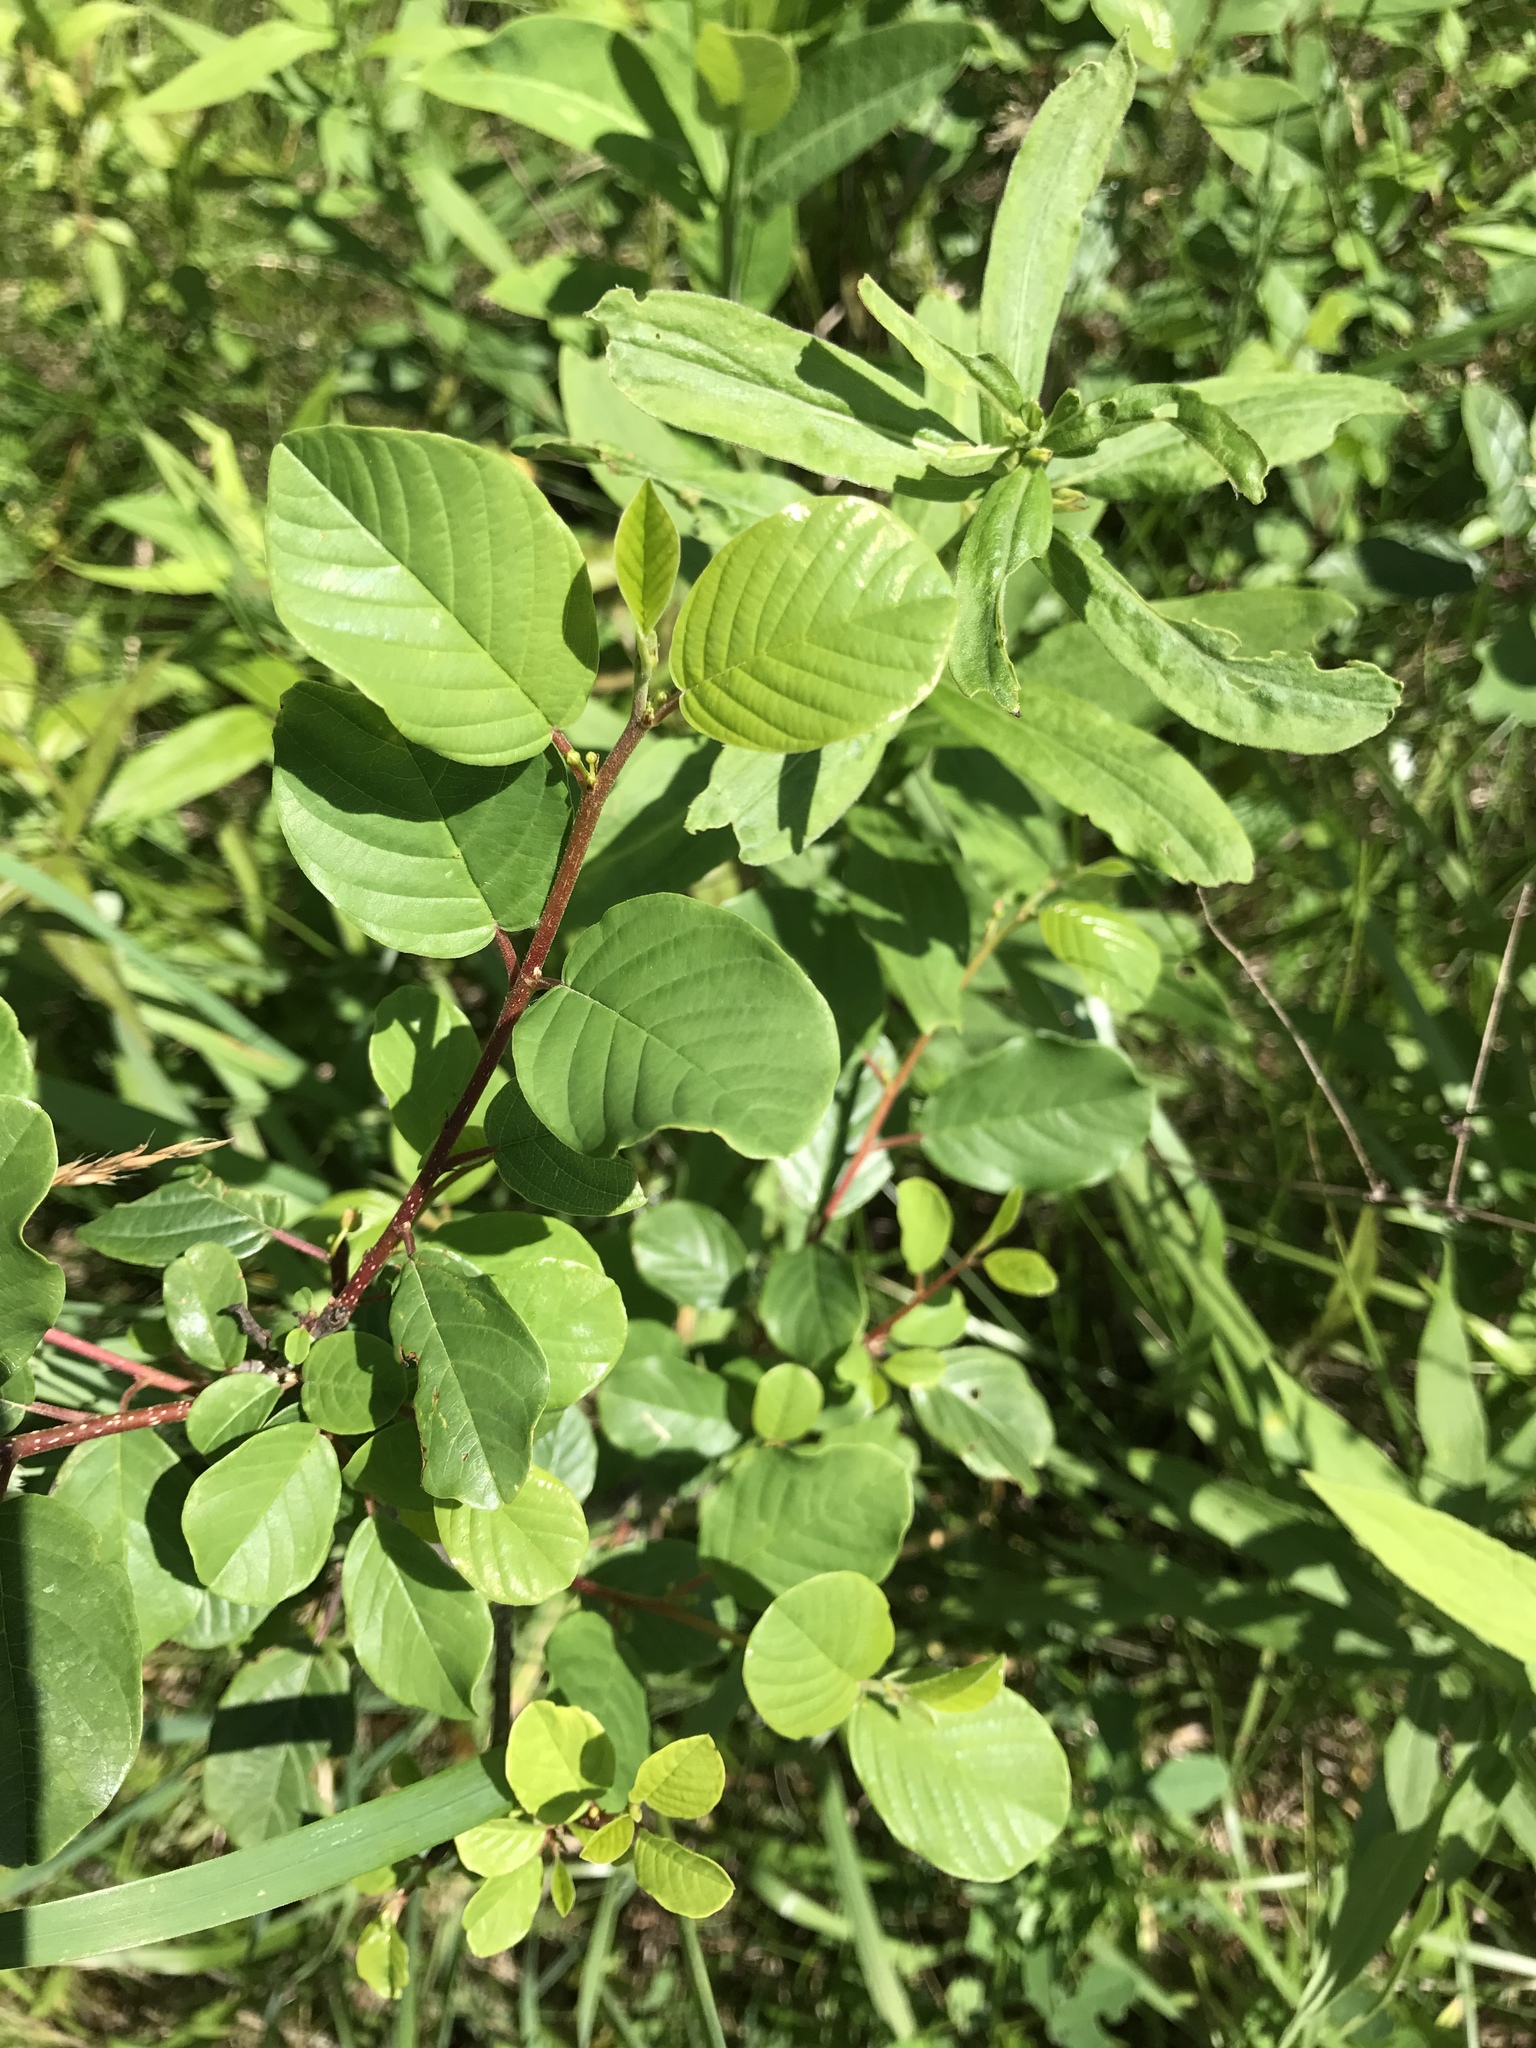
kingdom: Plantae
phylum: Tracheophyta
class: Magnoliopsida
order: Rosales
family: Rhamnaceae
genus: Frangula
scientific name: Frangula alnus
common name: Alder buckthorn
